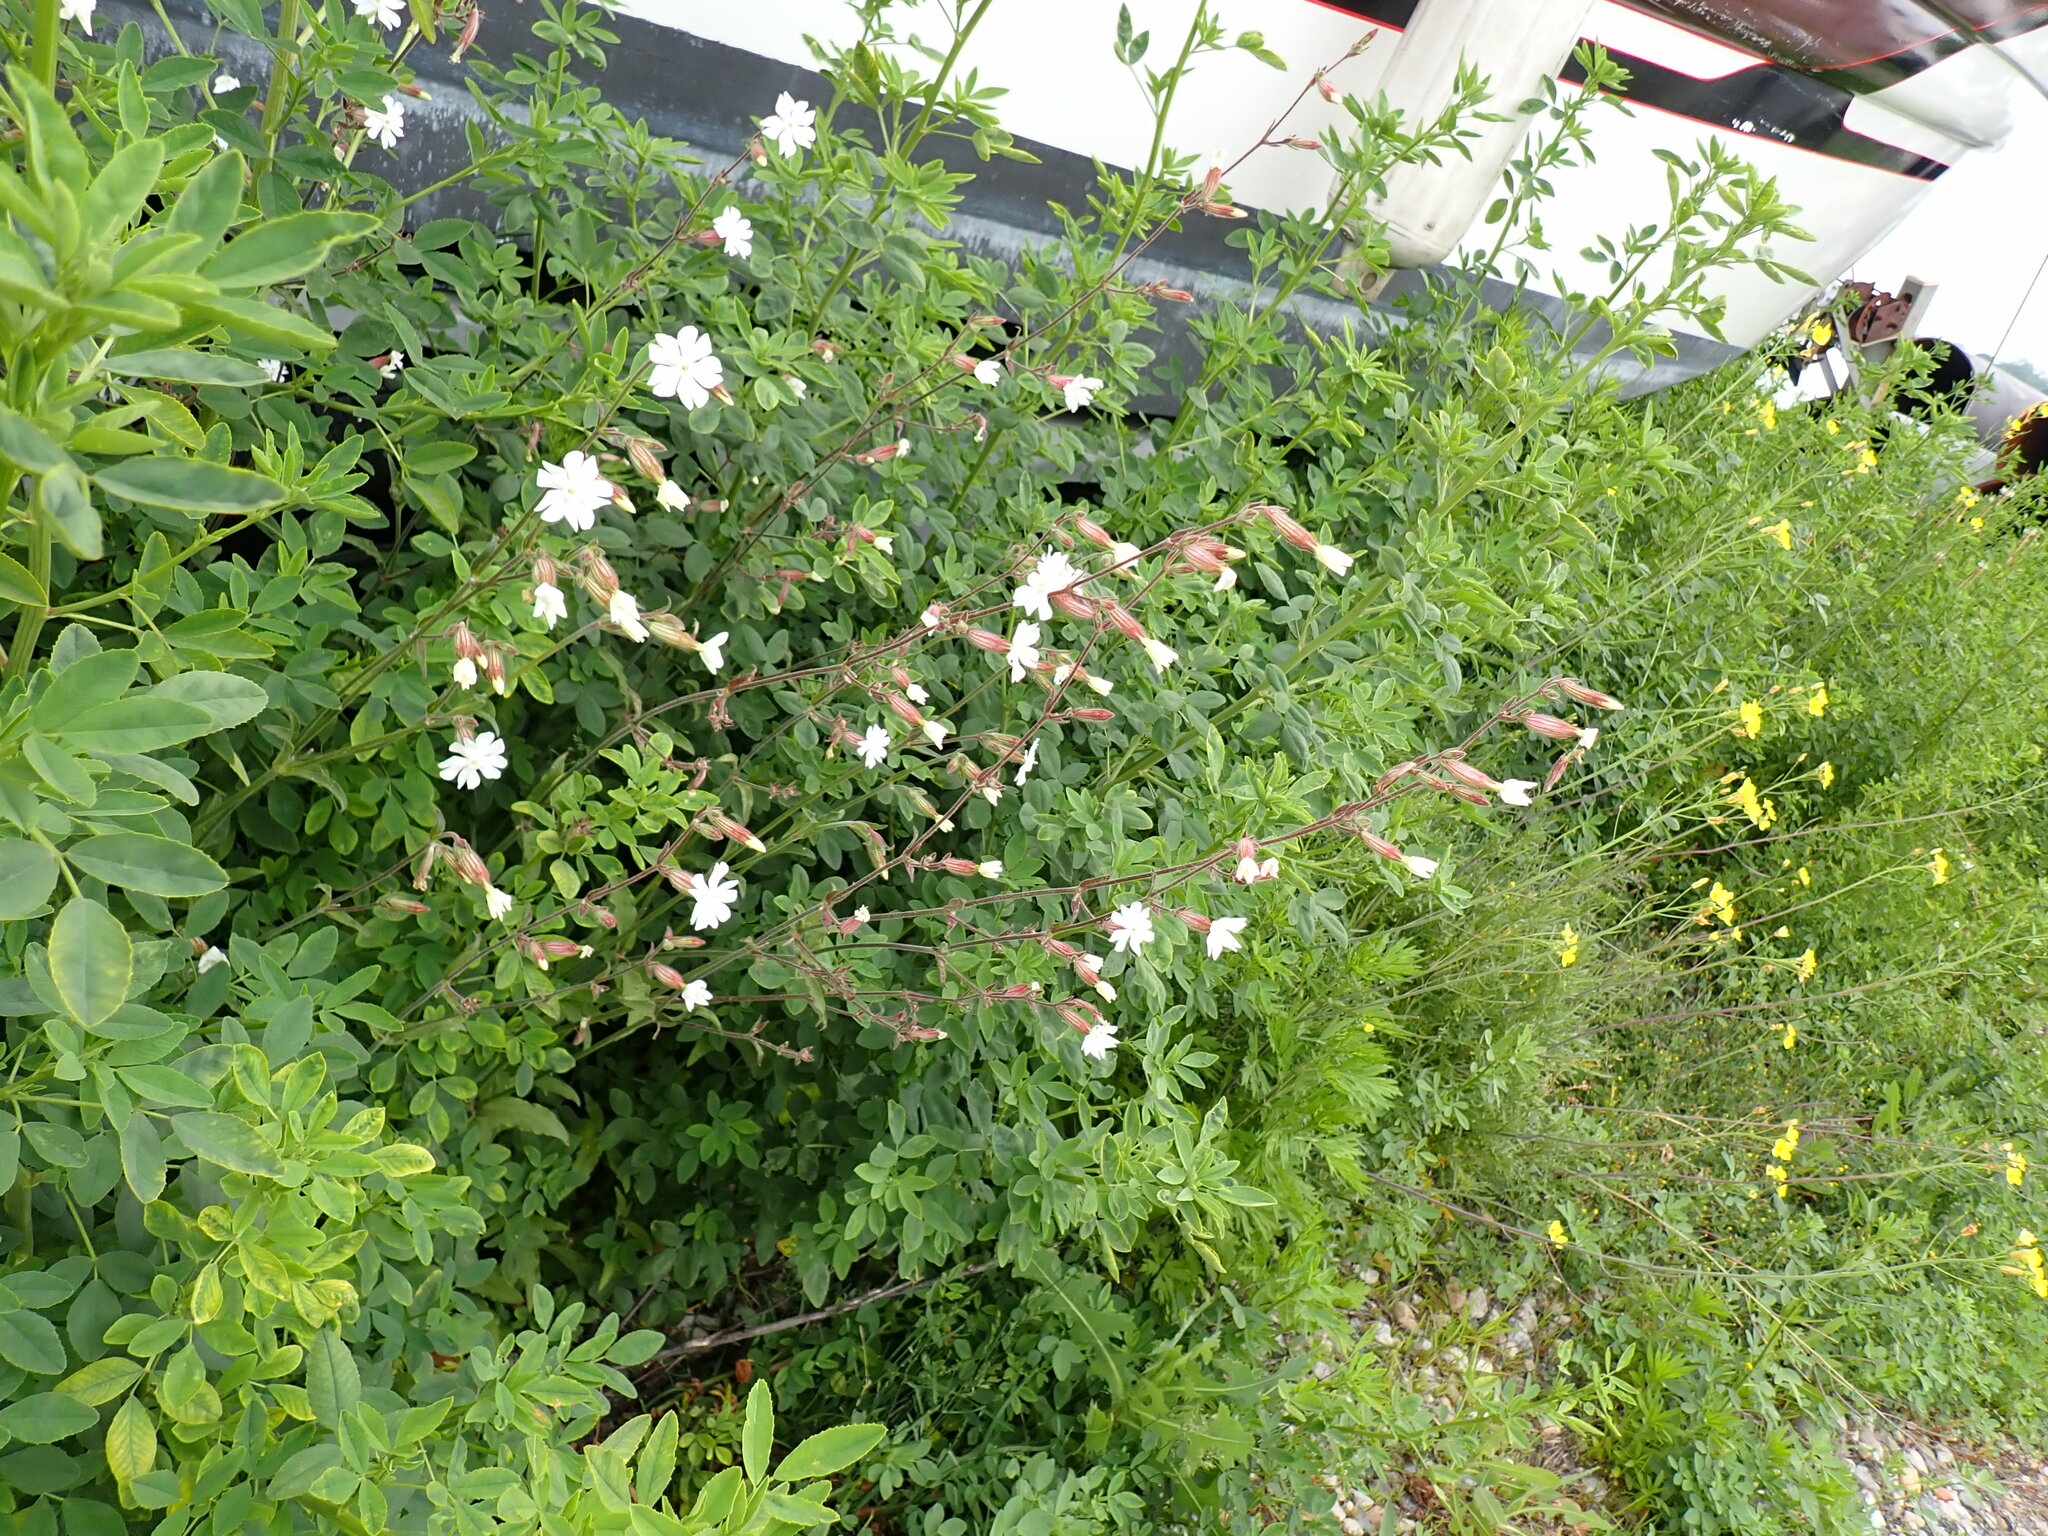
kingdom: Plantae
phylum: Tracheophyta
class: Magnoliopsida
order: Caryophyllales
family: Caryophyllaceae
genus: Silene
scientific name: Silene latifolia
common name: White campion
